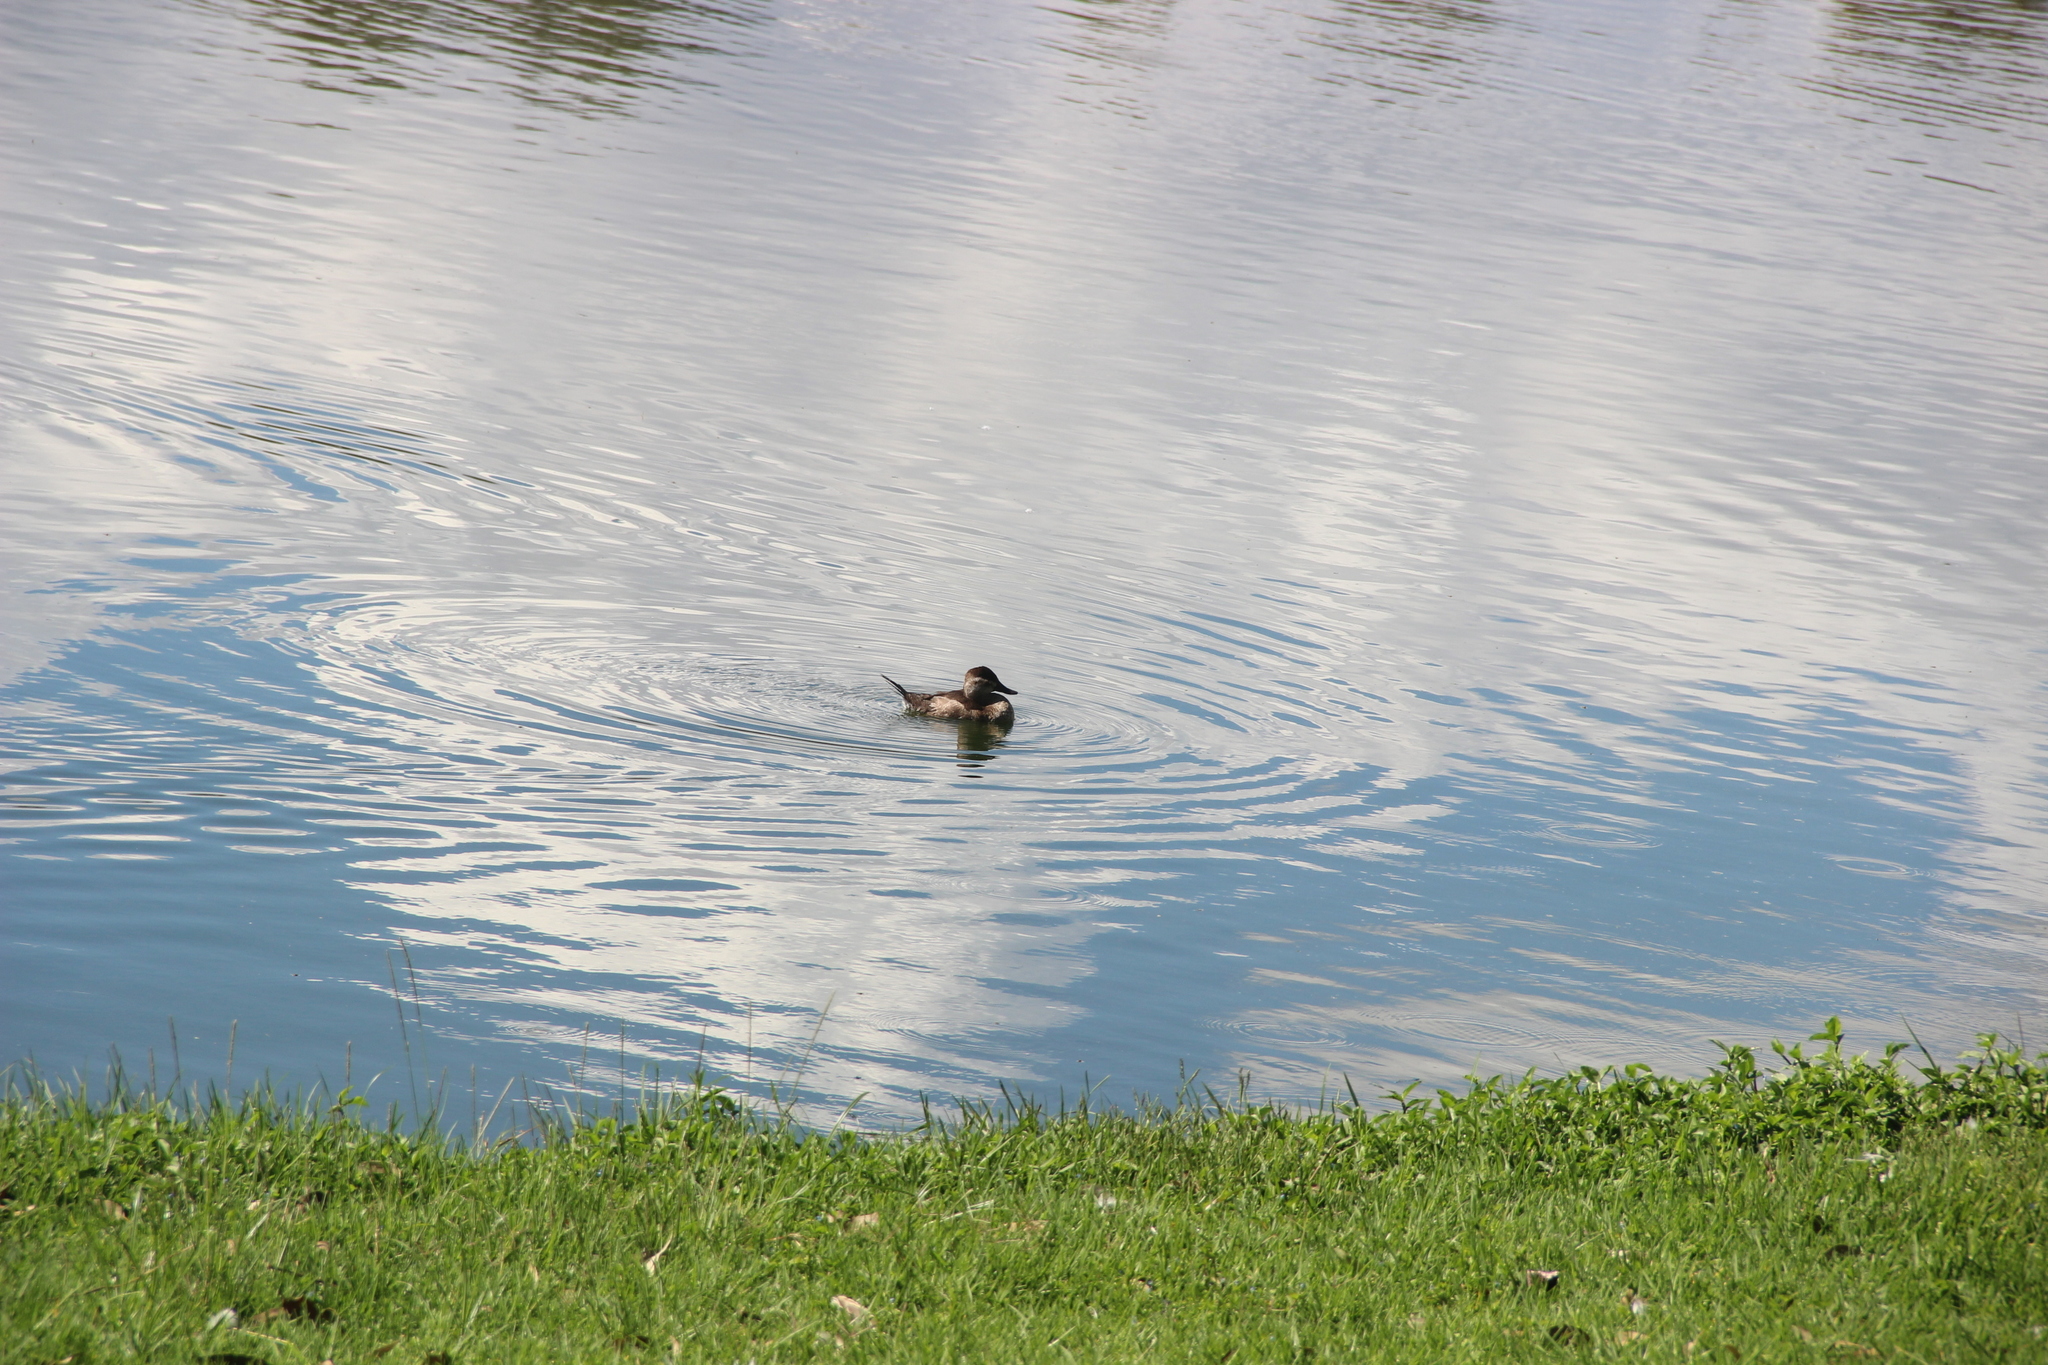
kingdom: Animalia
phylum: Chordata
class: Aves
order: Anseriformes
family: Anatidae
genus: Oxyura
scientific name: Oxyura jamaicensis
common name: Ruddy duck
